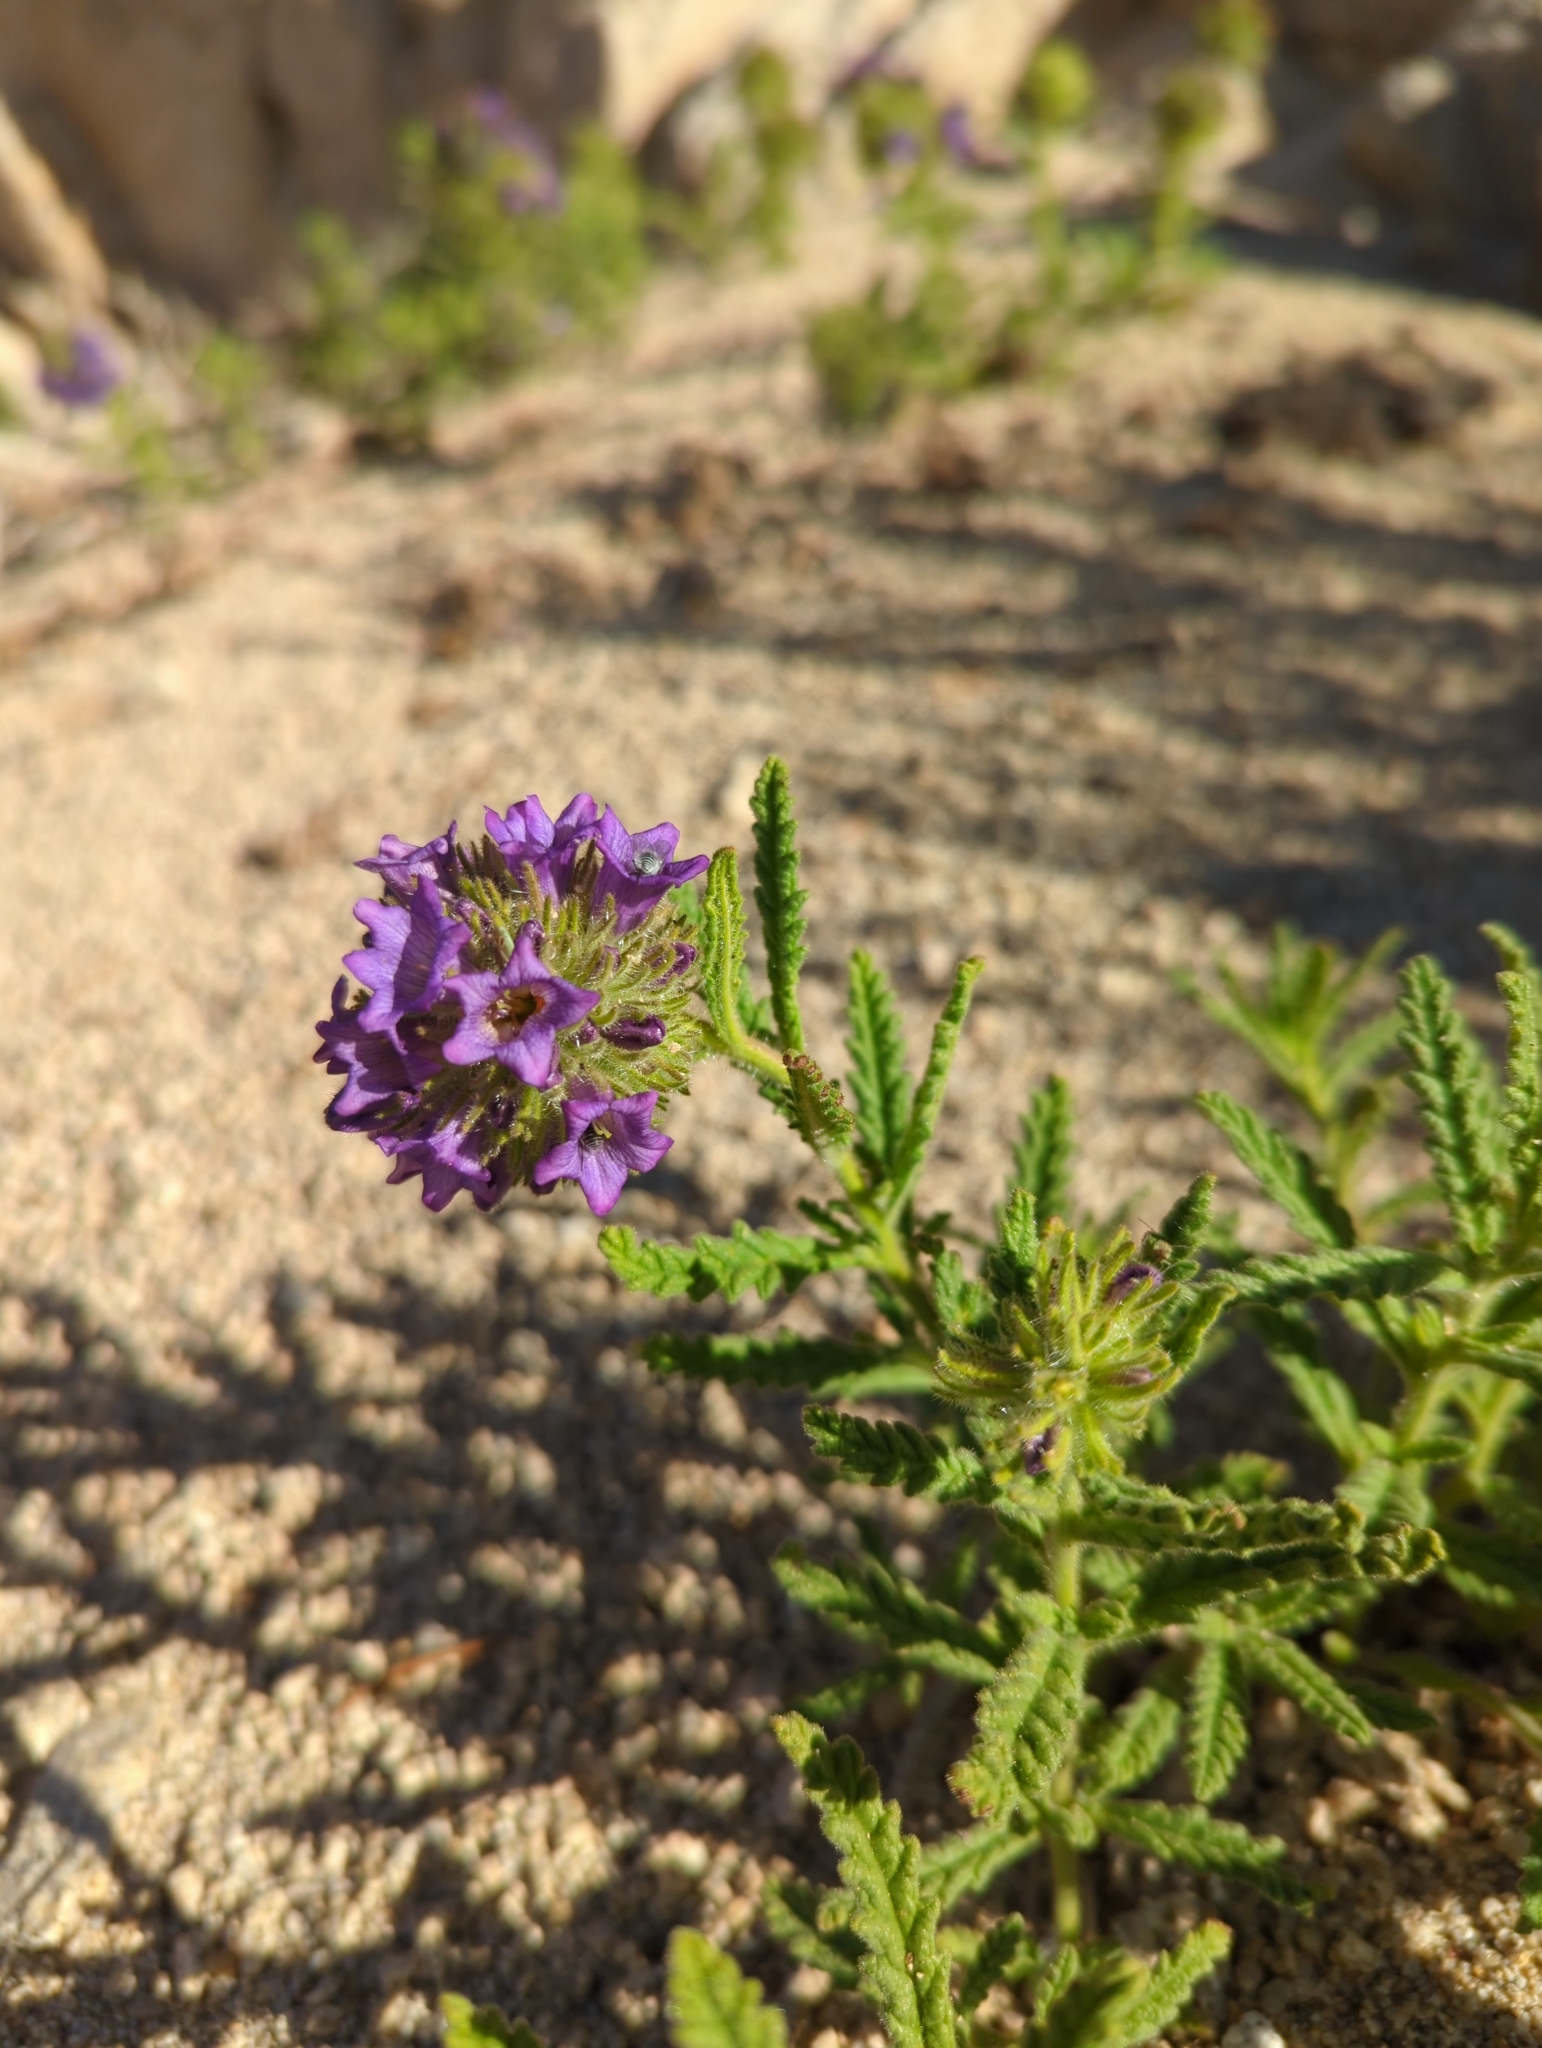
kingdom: Plantae
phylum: Tracheophyta
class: Magnoliopsida
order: Boraginales
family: Namaceae
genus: Nama
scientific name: Nama rothrockii
